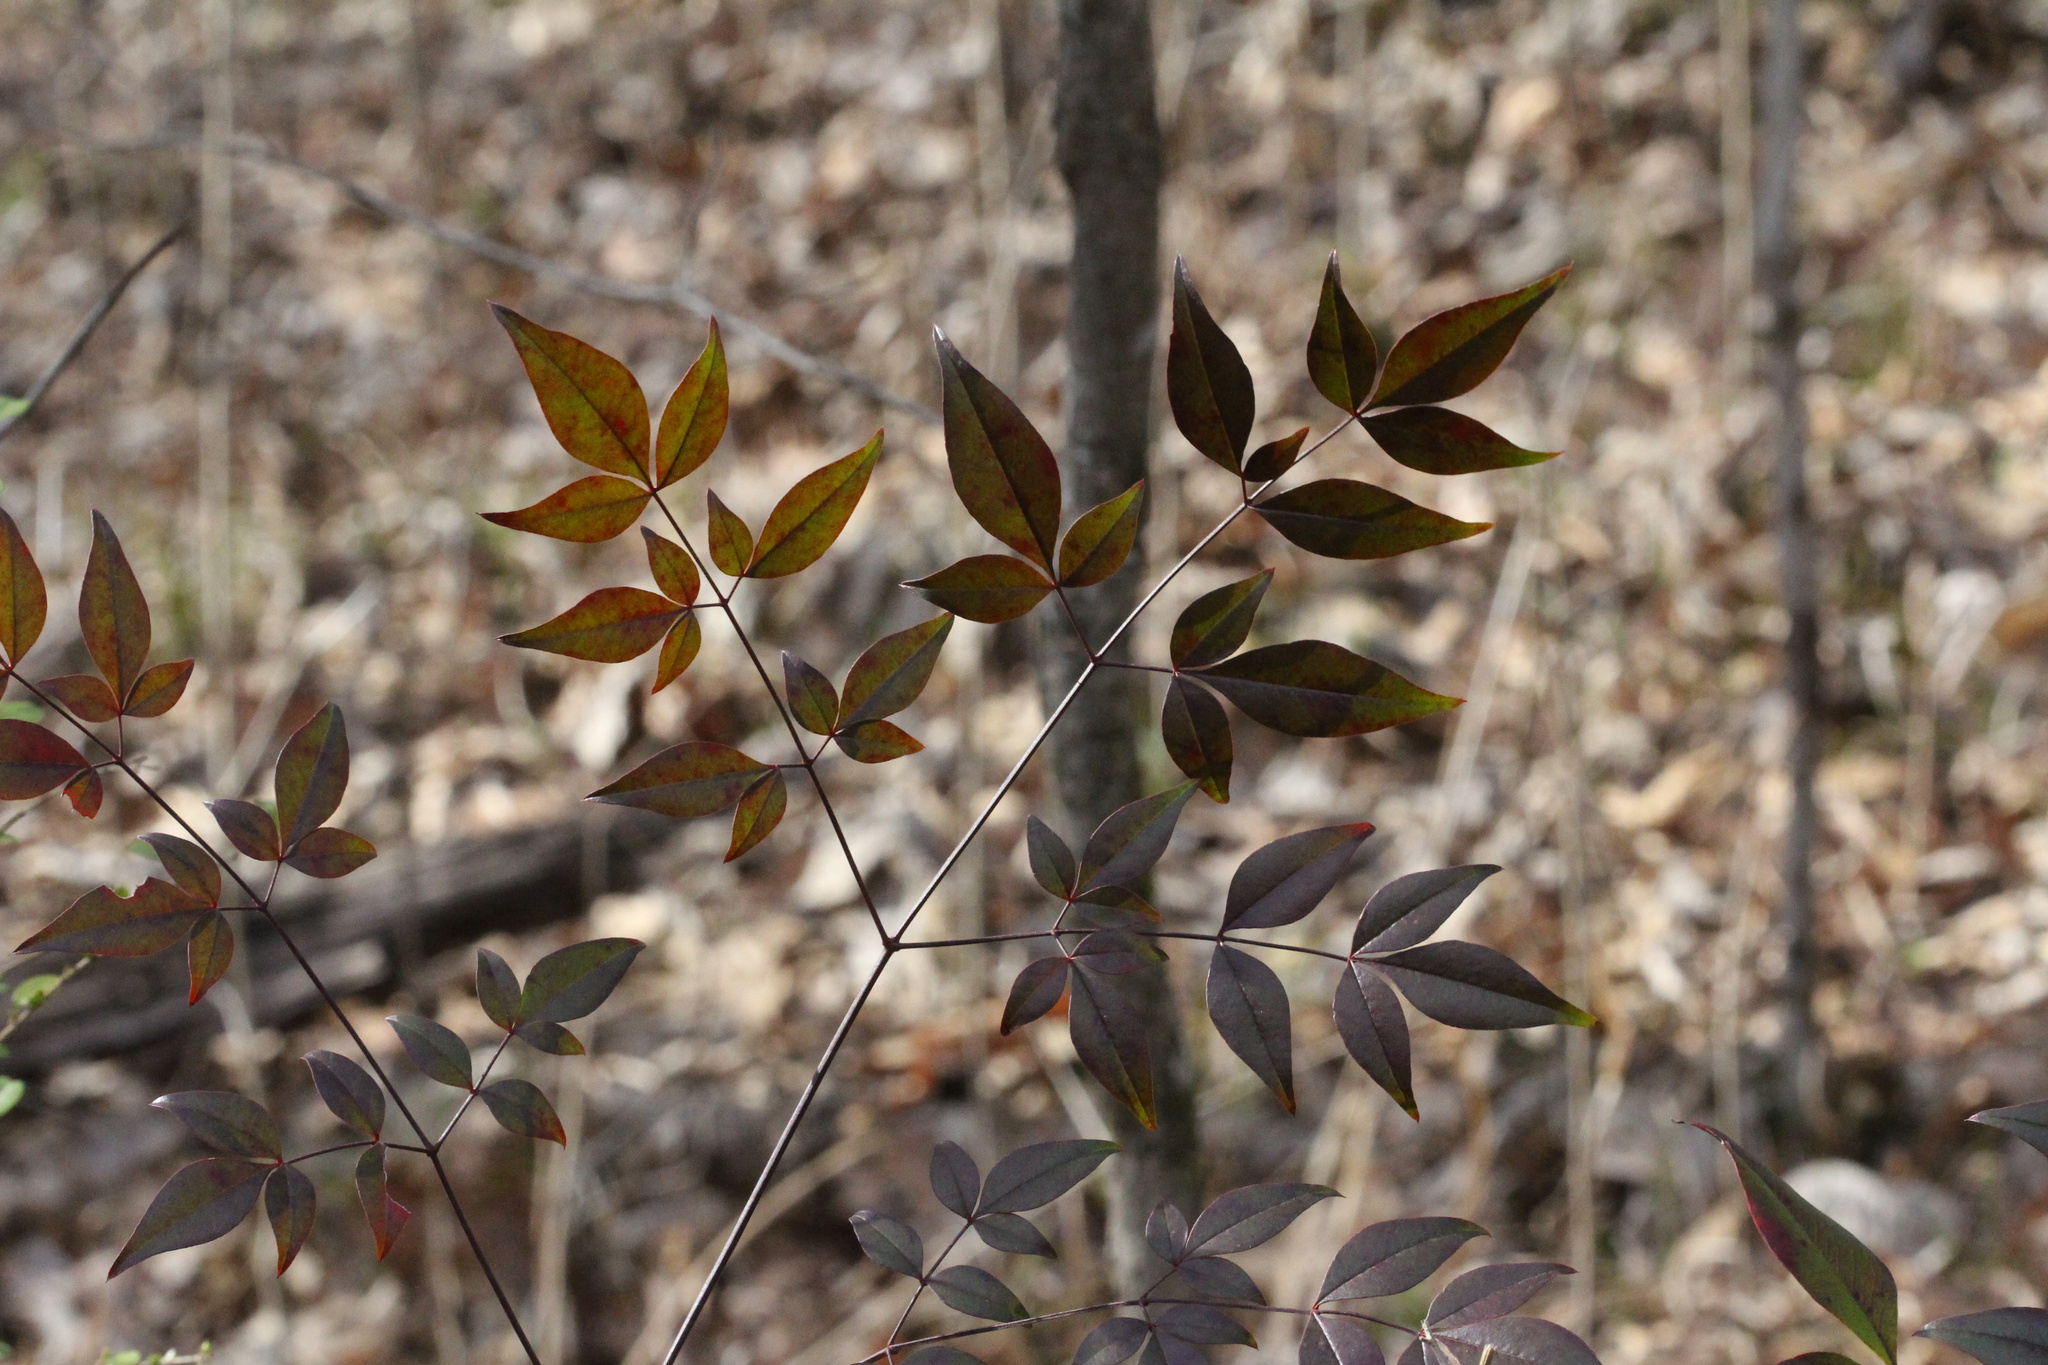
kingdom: Plantae
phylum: Tracheophyta
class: Magnoliopsida
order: Ranunculales
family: Berberidaceae
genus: Nandina
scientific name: Nandina domestica
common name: Sacred bamboo
